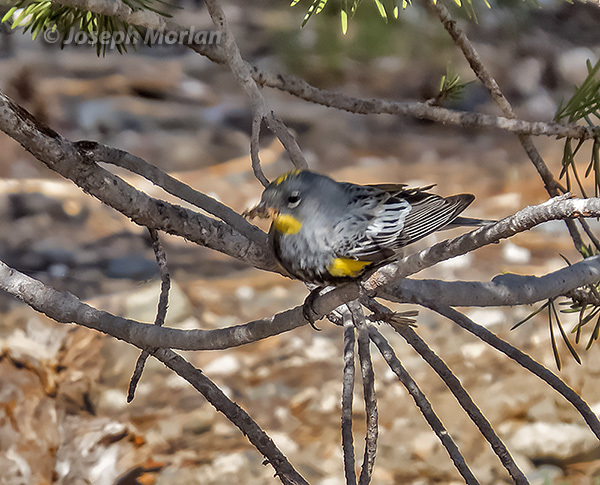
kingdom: Animalia
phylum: Chordata
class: Aves
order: Passeriformes
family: Parulidae
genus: Setophaga
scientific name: Setophaga coronata
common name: Myrtle warbler
